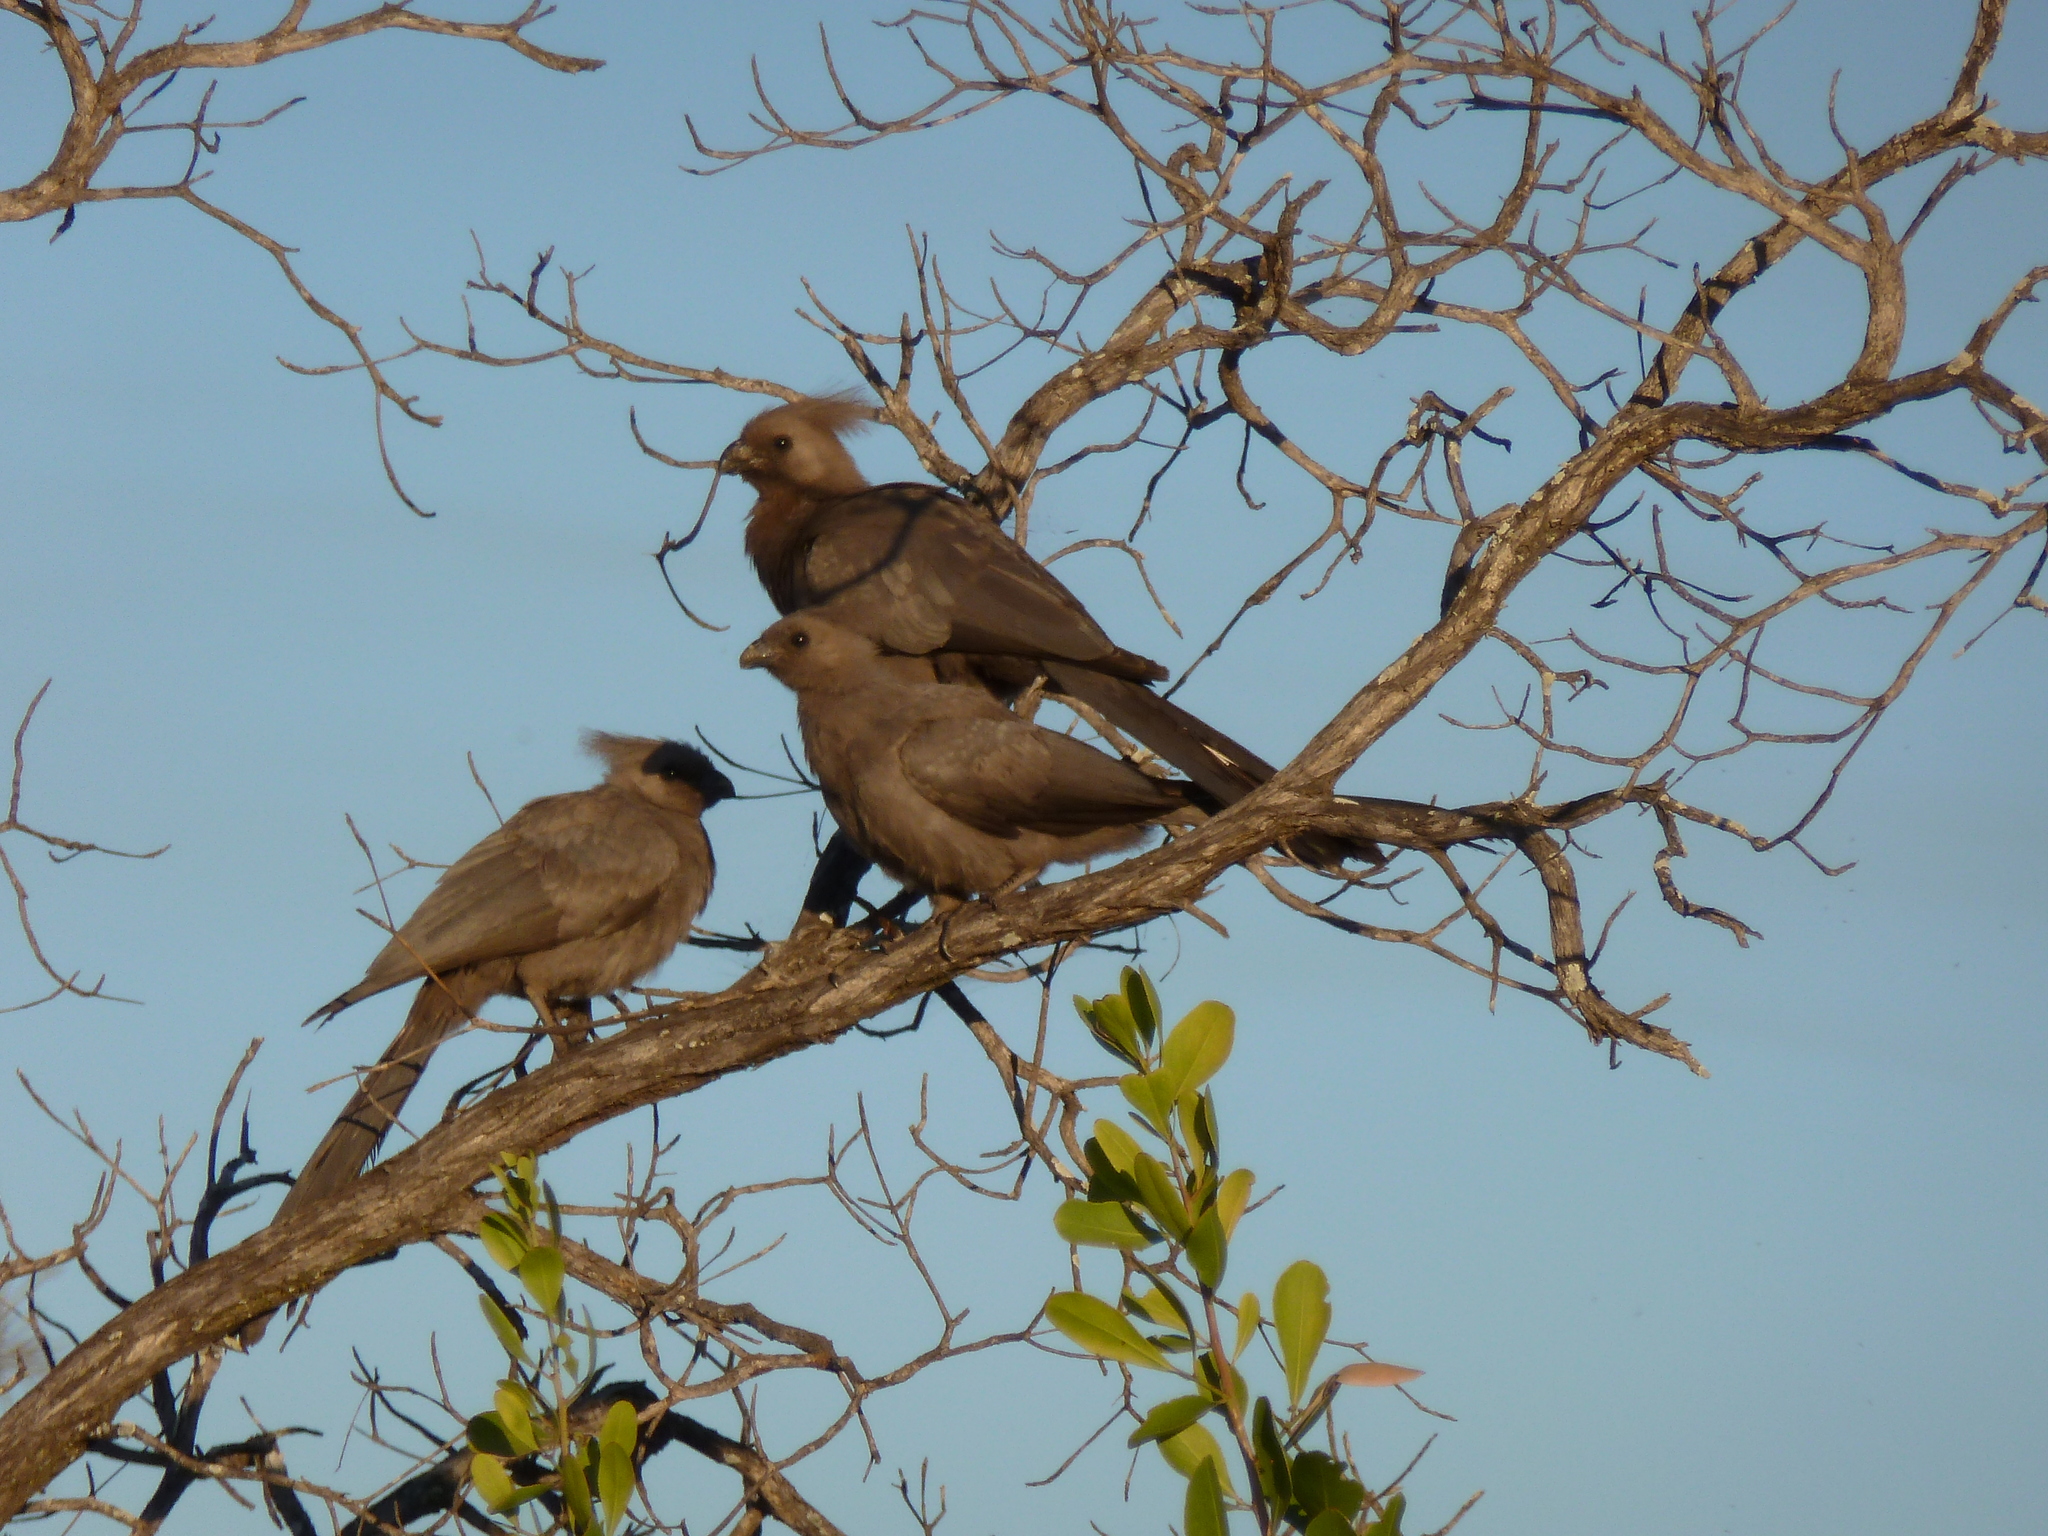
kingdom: Animalia
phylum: Chordata
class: Aves
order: Musophagiformes
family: Musophagidae
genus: Corythaixoides
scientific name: Corythaixoides concolor
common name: Grey go-away-bird
